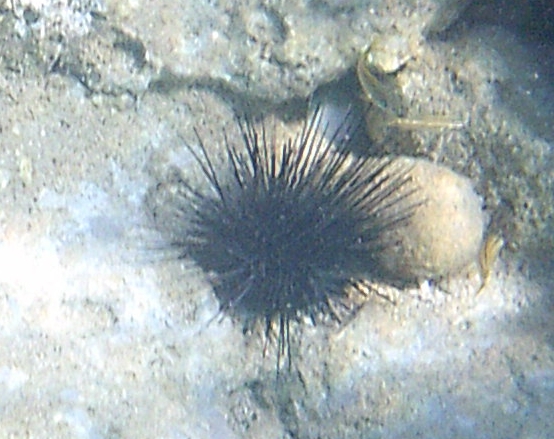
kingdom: Animalia
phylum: Echinodermata
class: Echinoidea
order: Diadematoida
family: Diadematidae
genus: Diadema
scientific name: Diadema antillarum
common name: Spiny urchin
